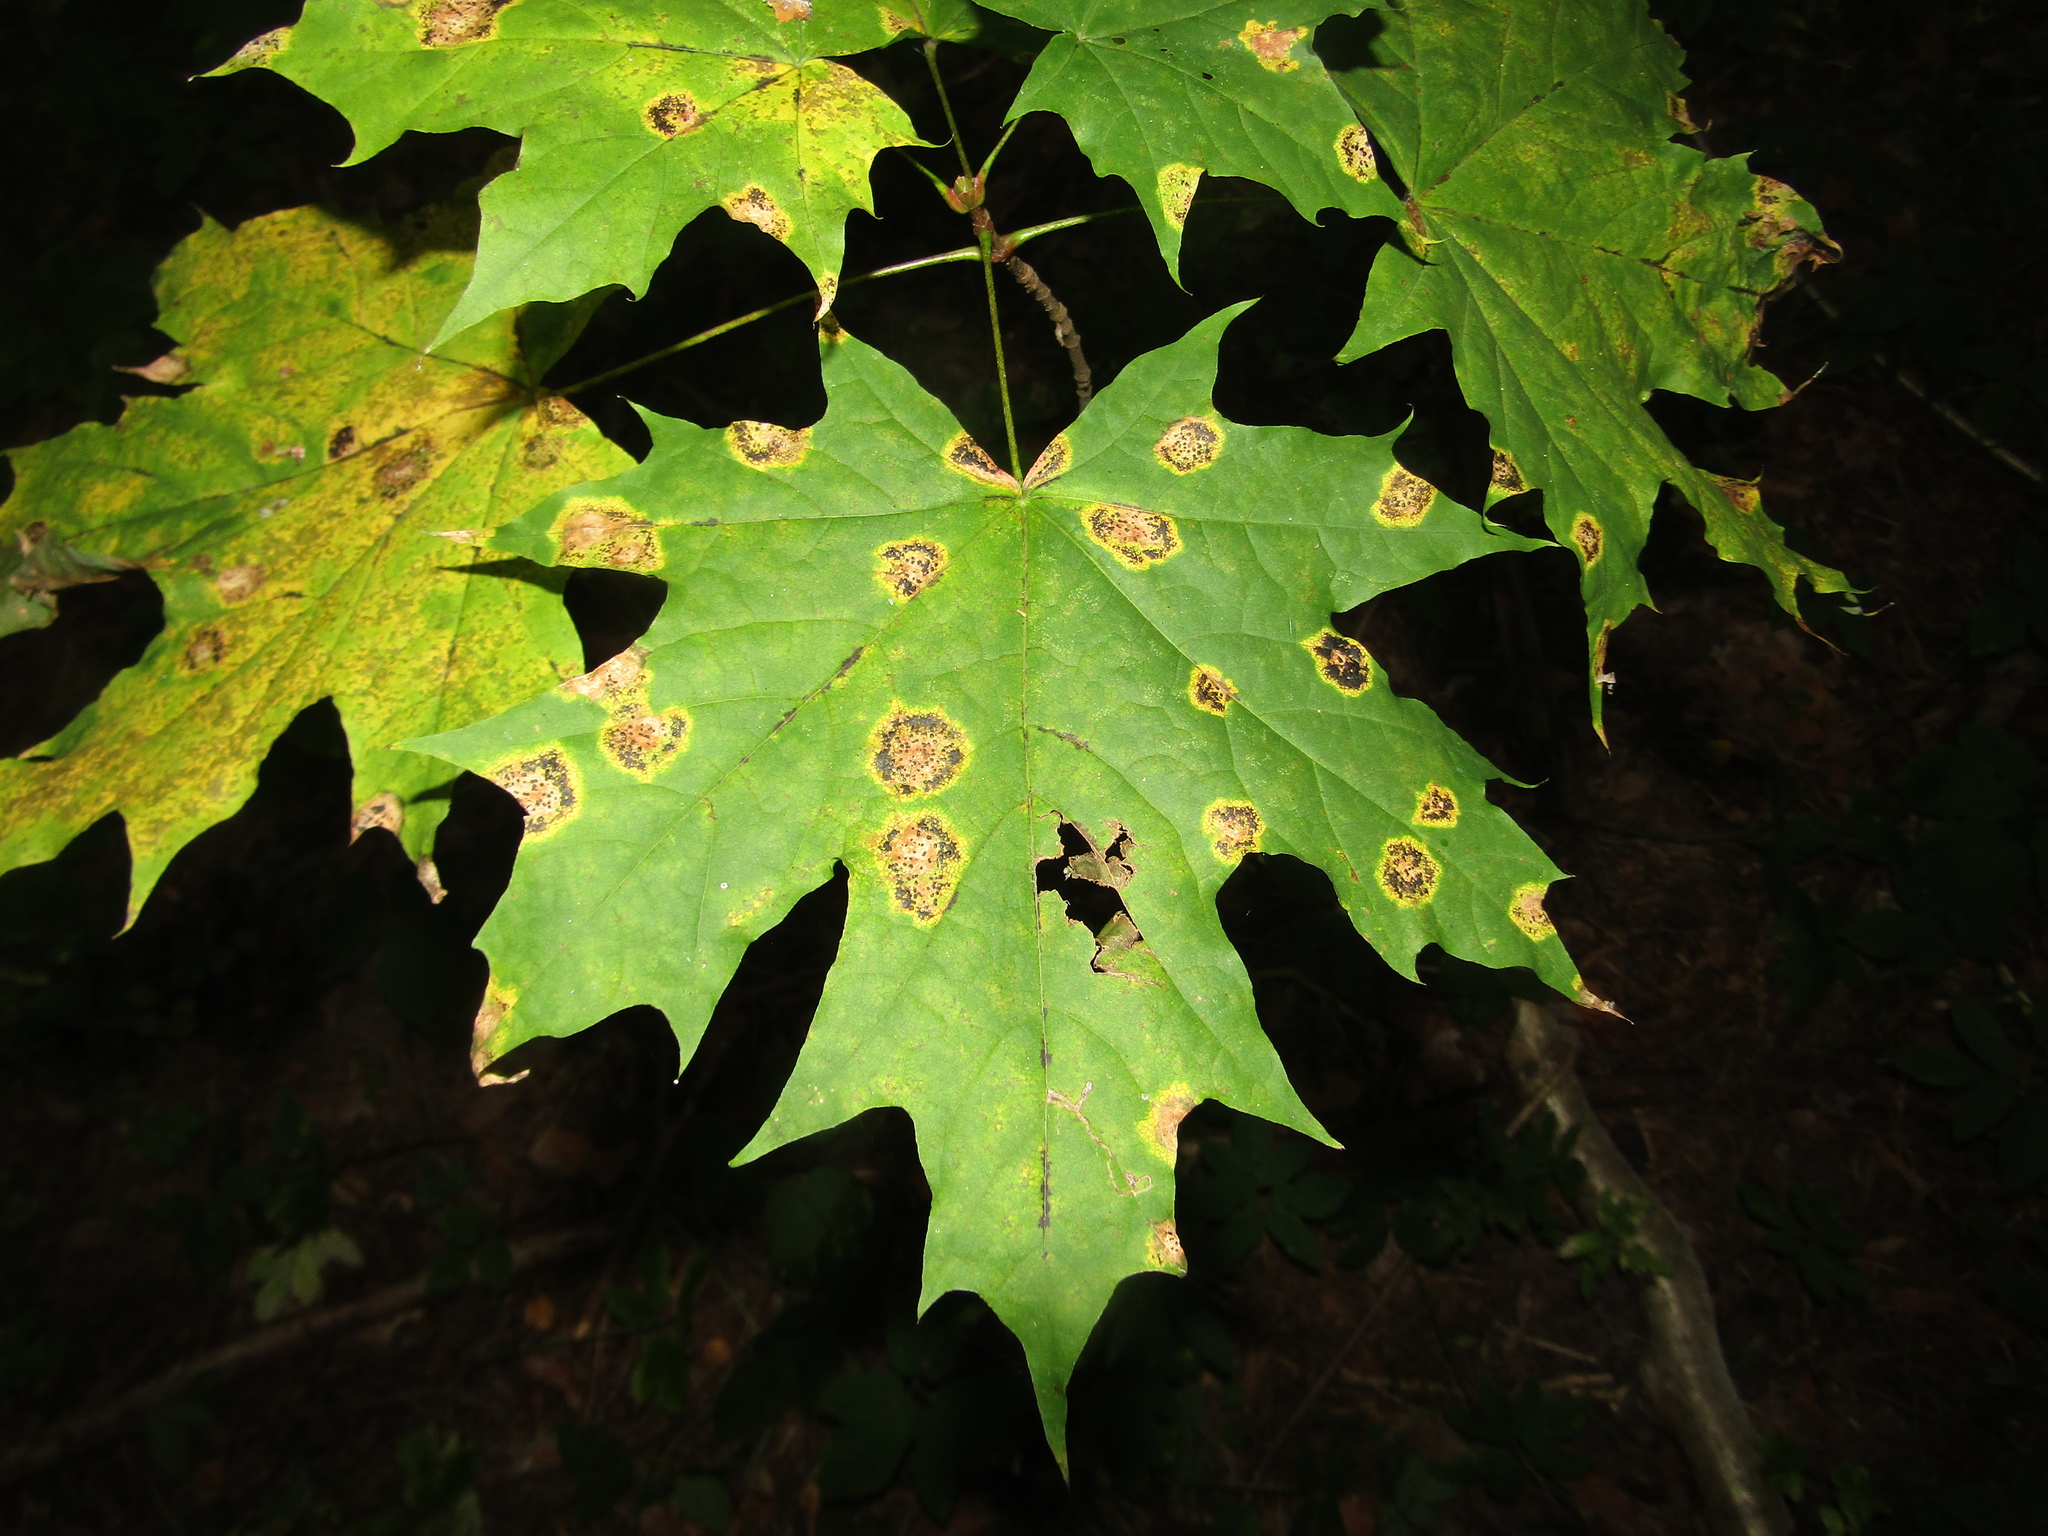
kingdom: Fungi
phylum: Ascomycota
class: Leotiomycetes
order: Rhytismatales
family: Rhytismataceae
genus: Rhytisma
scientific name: Rhytisma acerinum
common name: European tar spot
